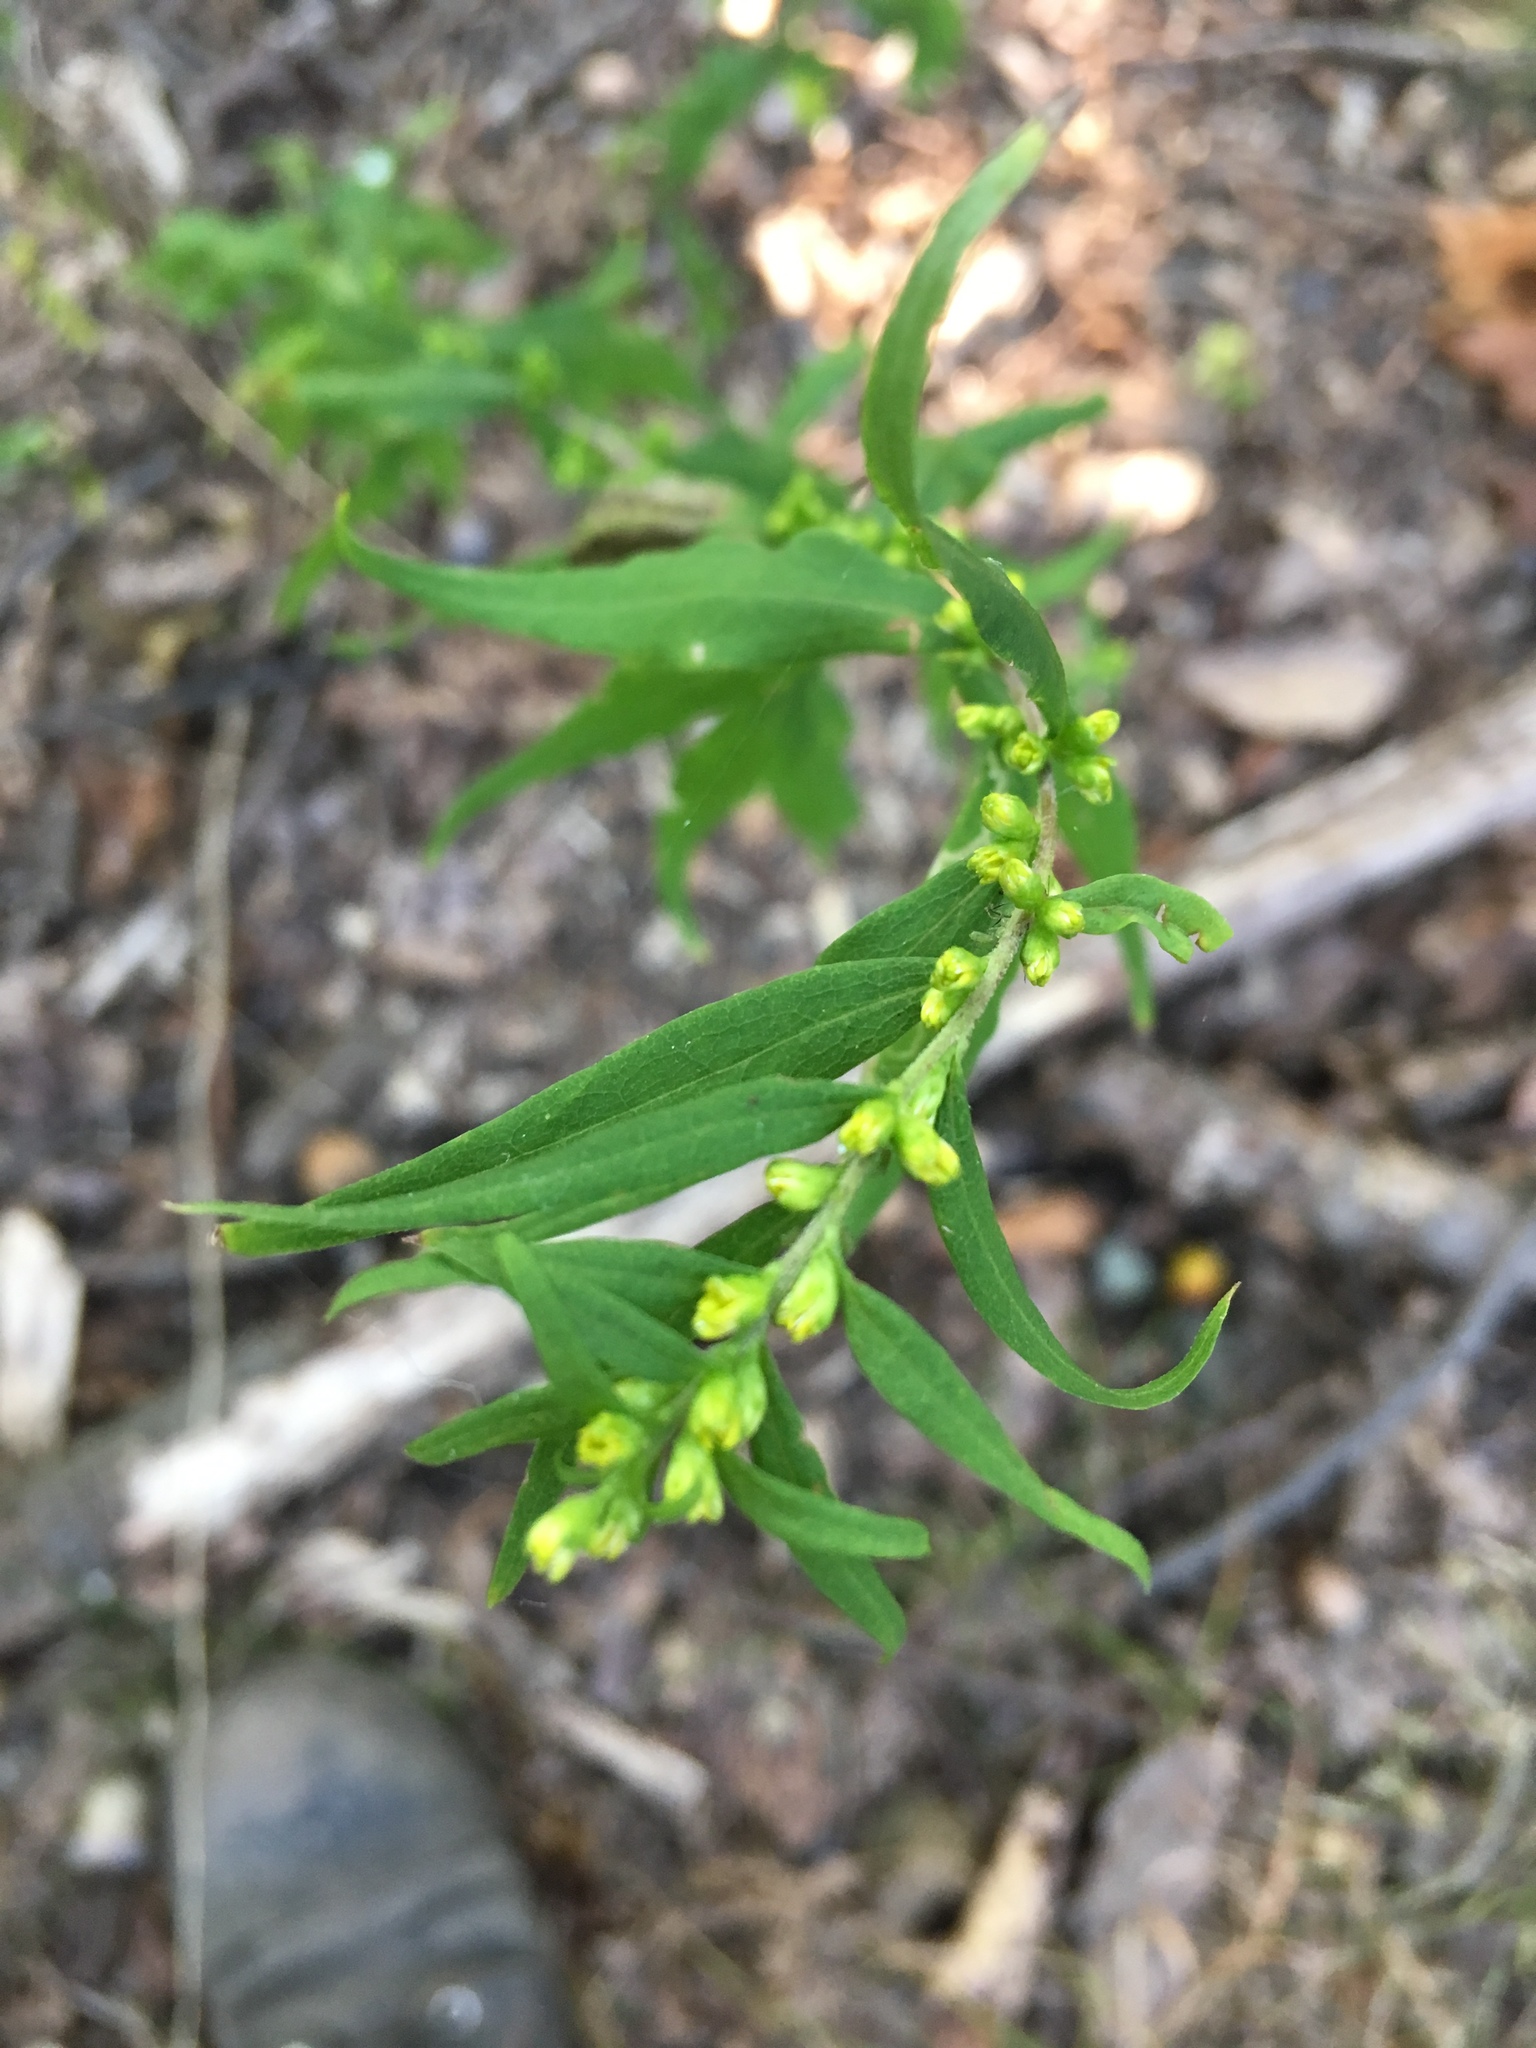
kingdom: Plantae
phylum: Tracheophyta
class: Magnoliopsida
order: Asterales
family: Asteraceae
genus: Solidago
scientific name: Solidago caesia
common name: Woodland goldenrod
